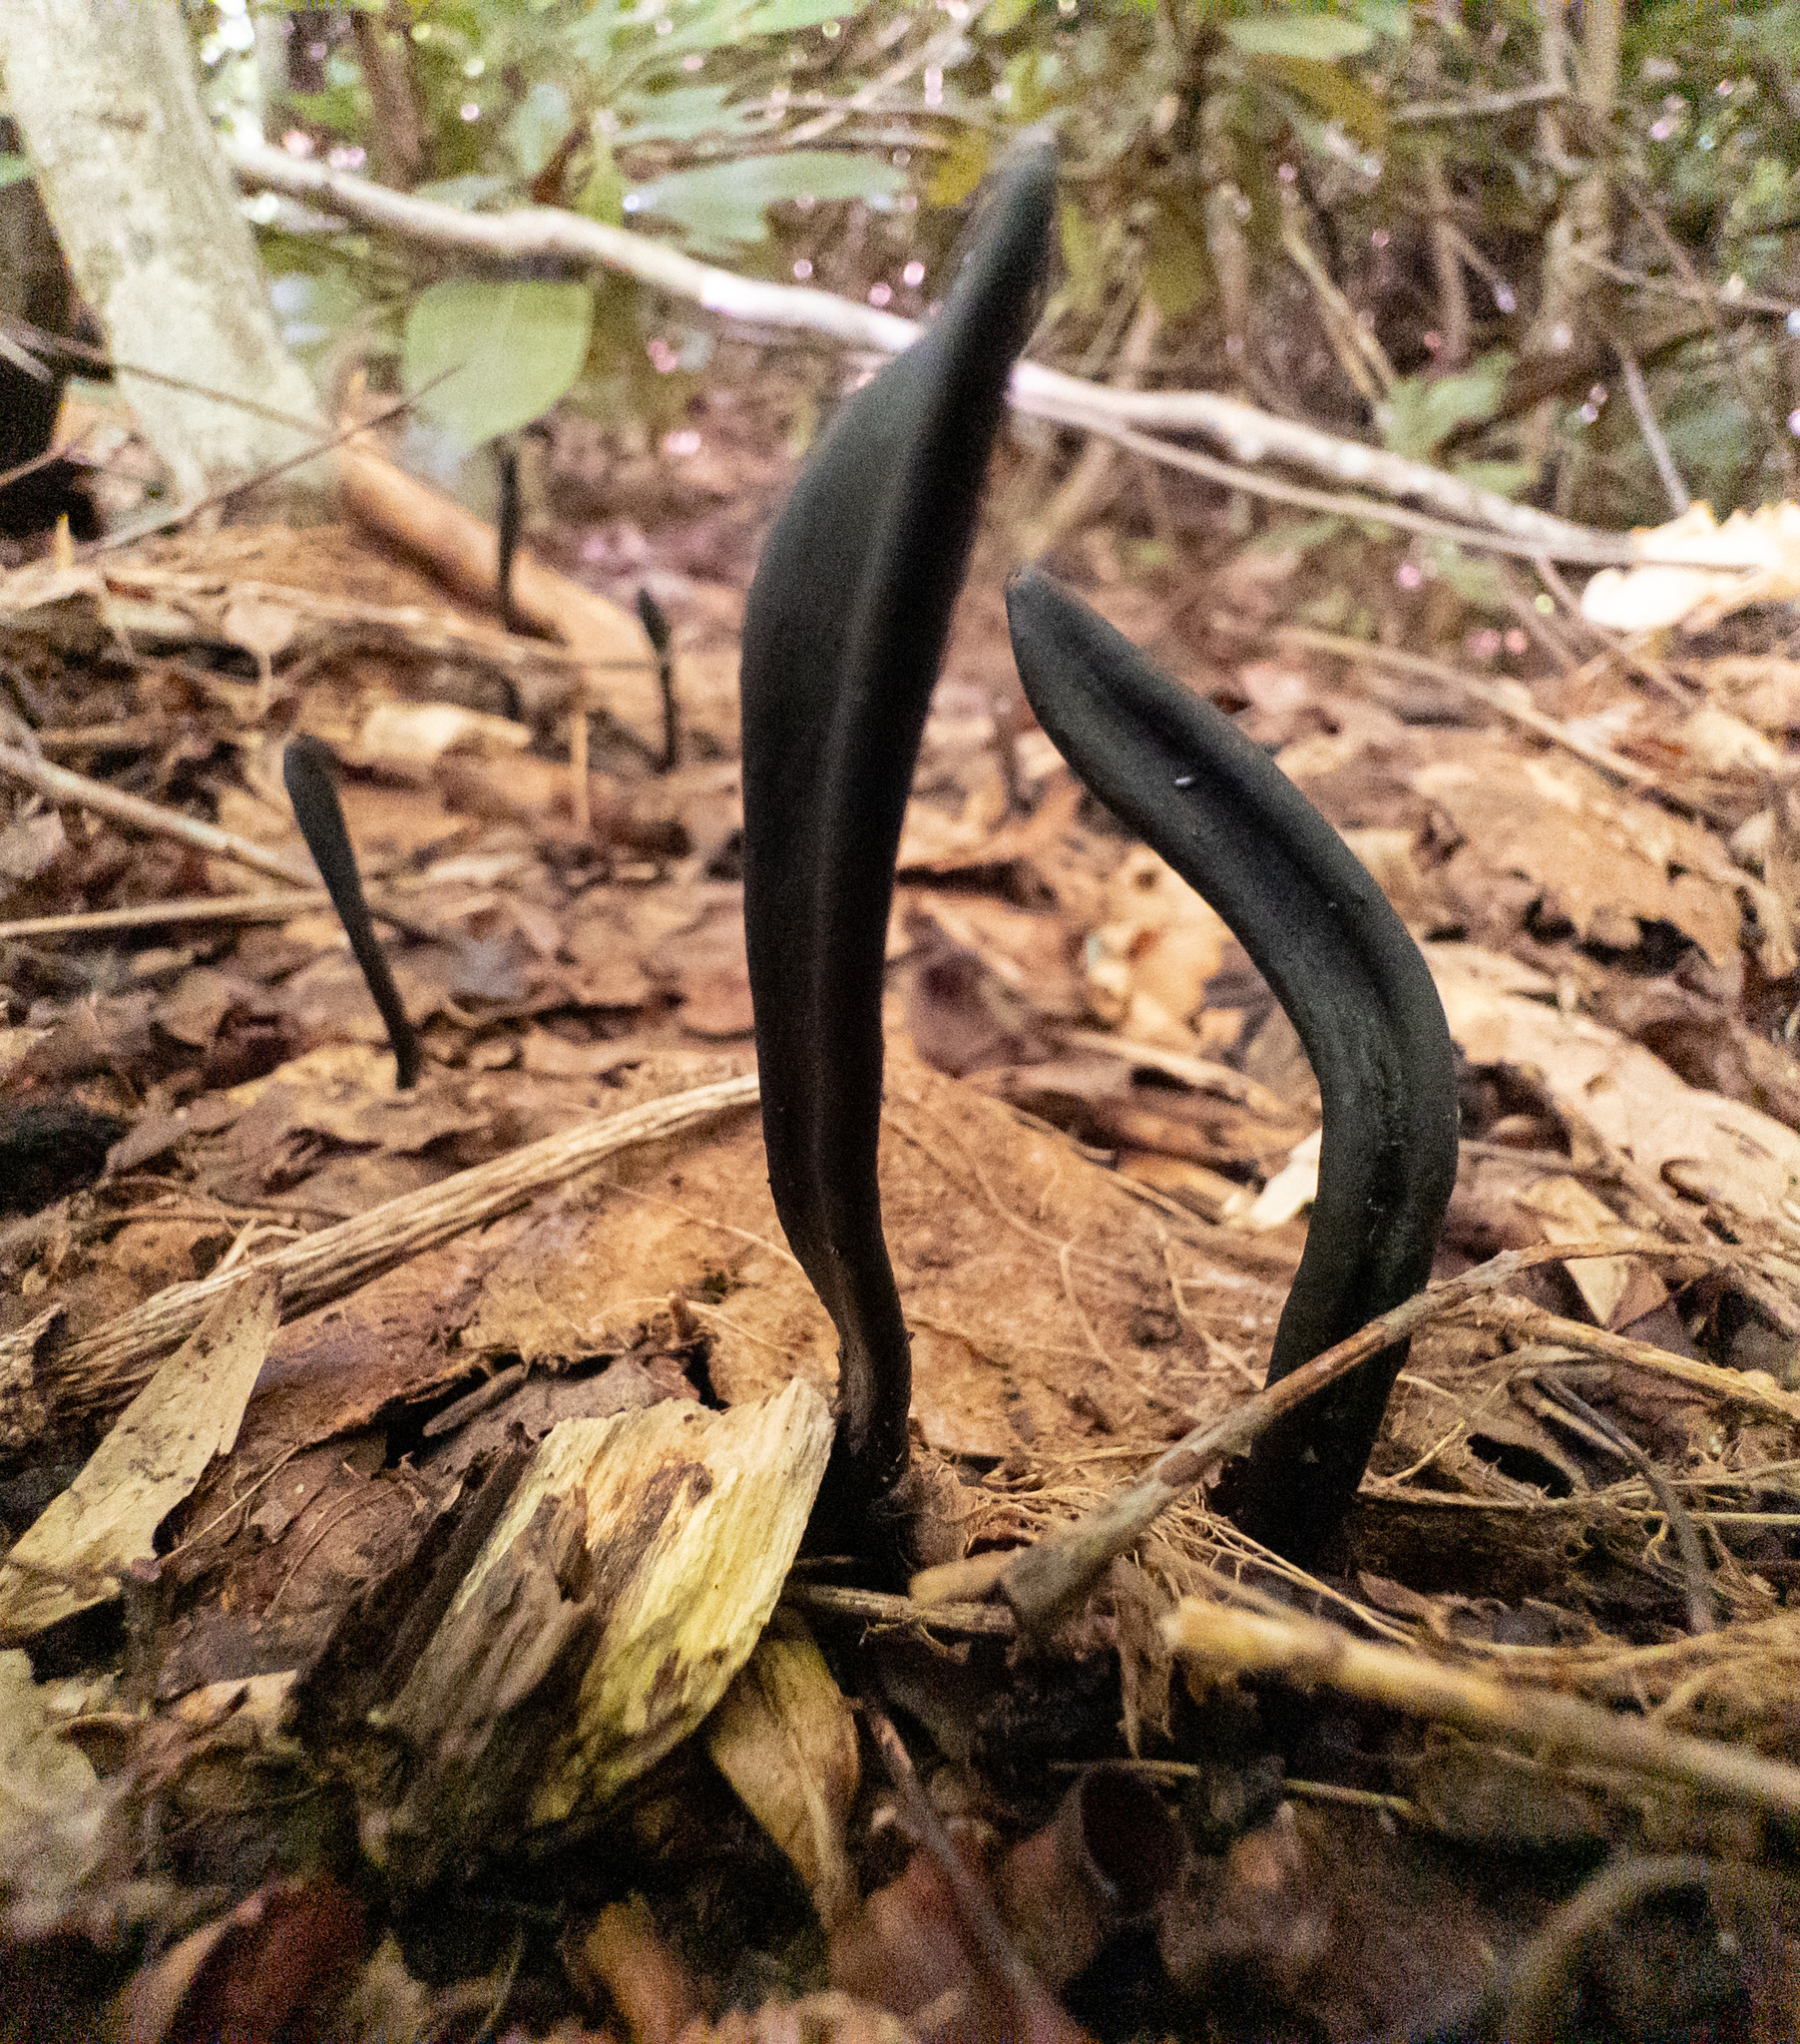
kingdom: Fungi
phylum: Ascomycota
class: Geoglossomycetes
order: Geoglossales
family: Geoglossaceae
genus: Geoglossum
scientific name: Geoglossum
